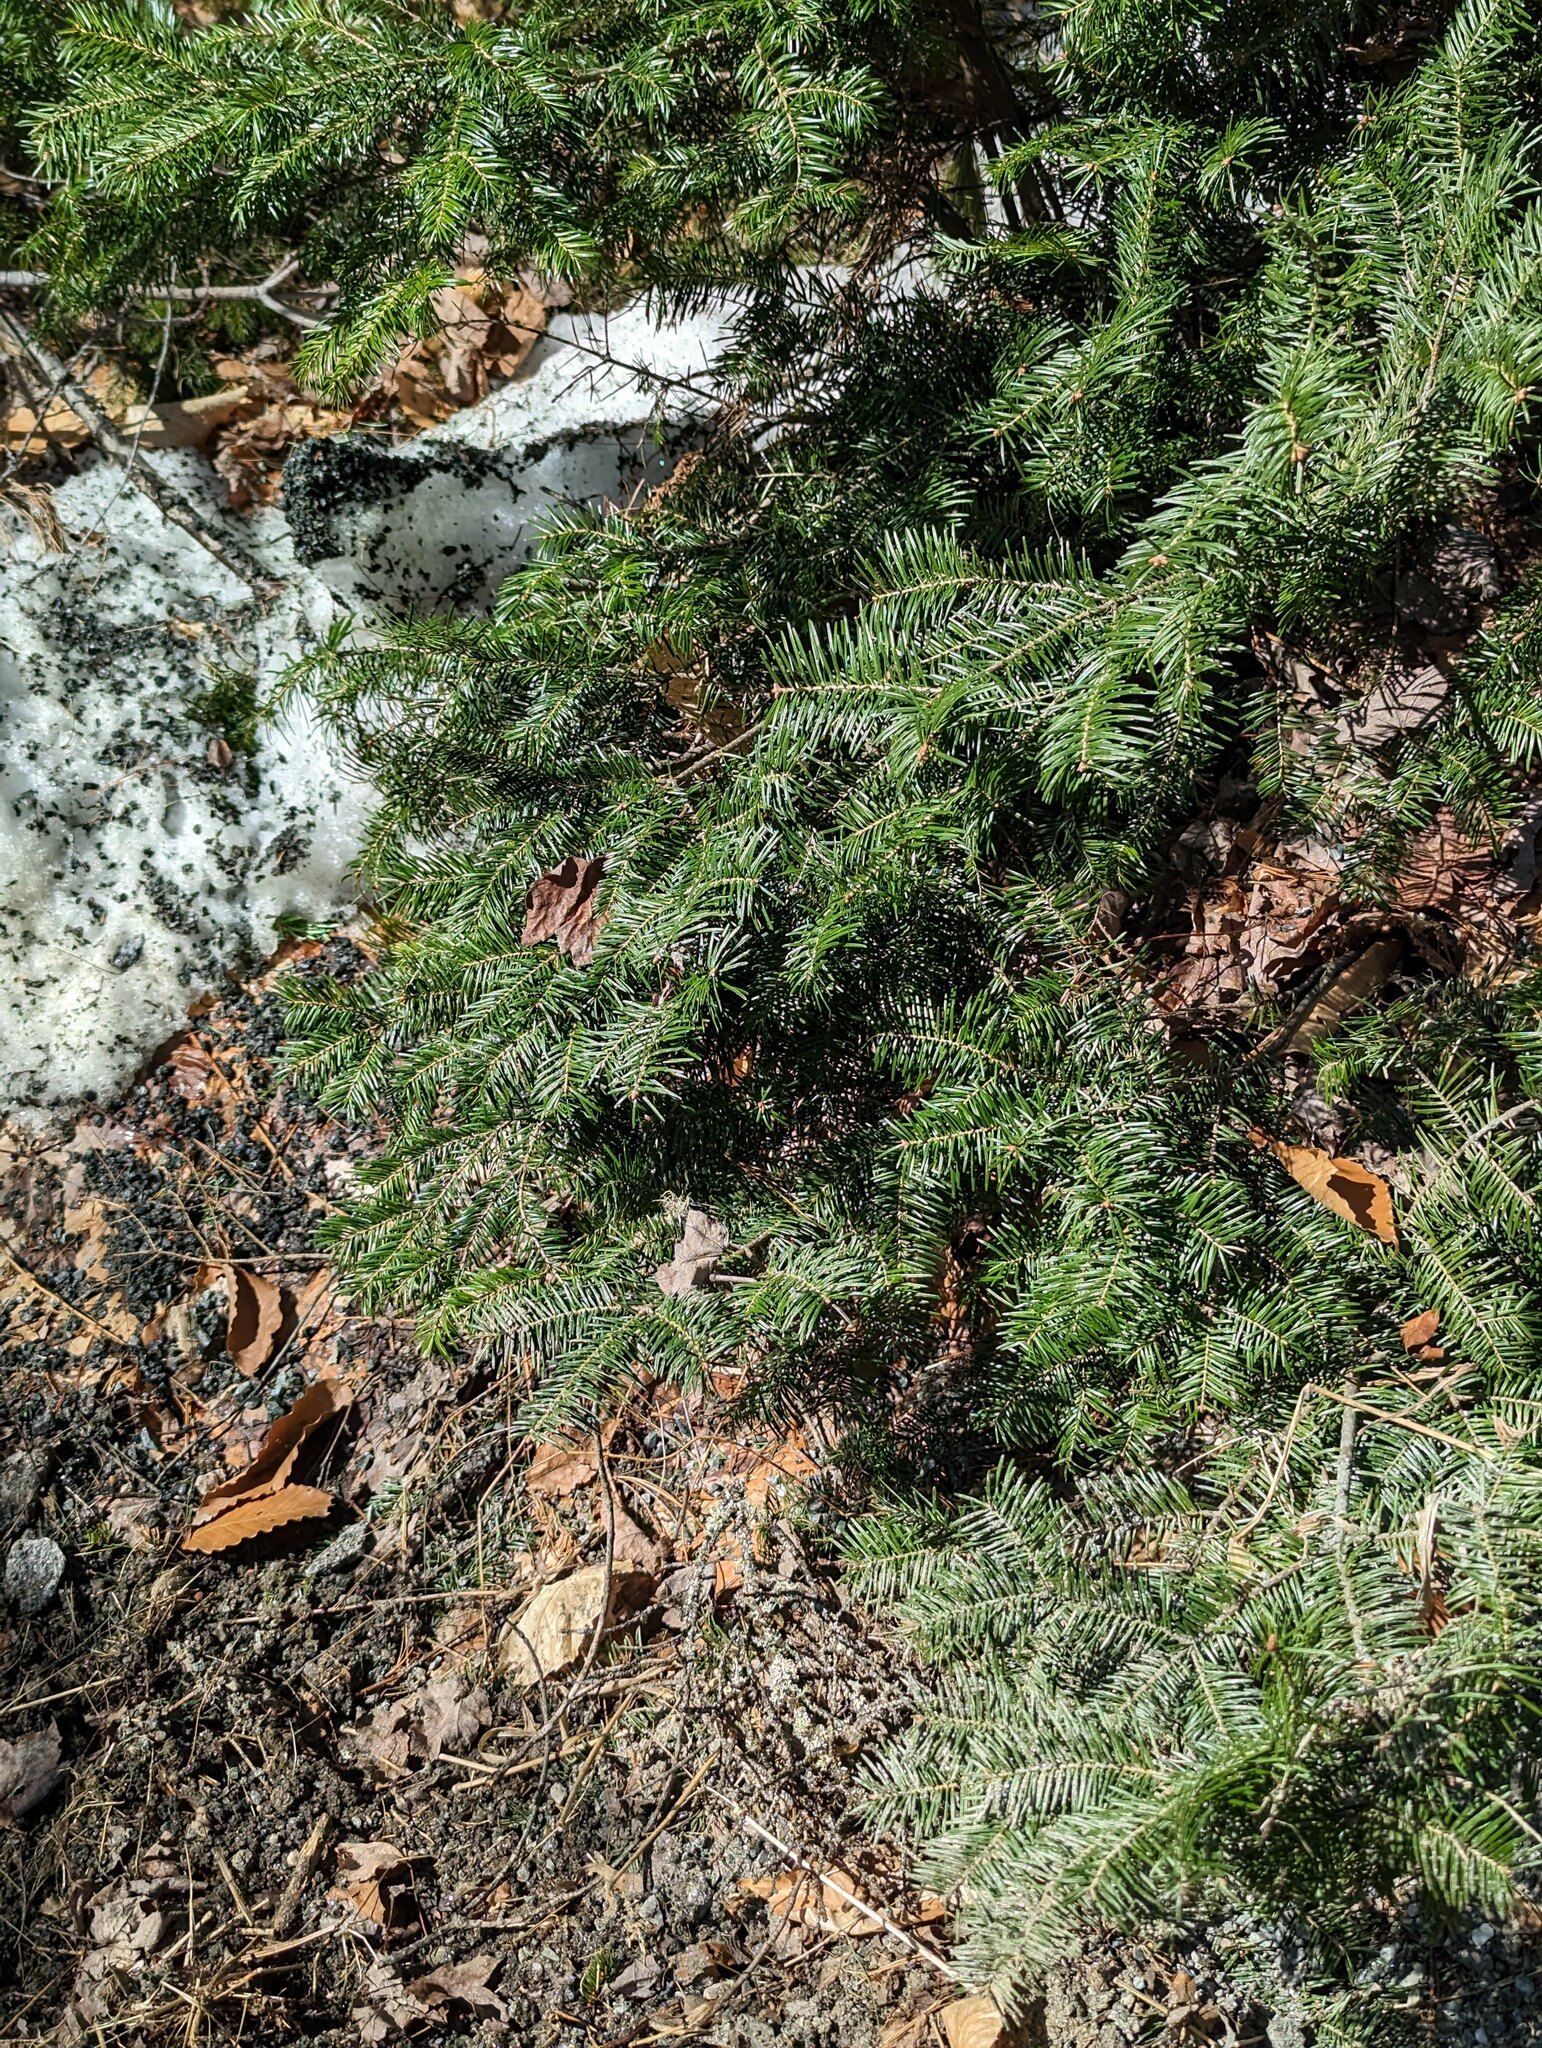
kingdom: Plantae
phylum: Tracheophyta
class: Pinopsida
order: Pinales
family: Pinaceae
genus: Abies
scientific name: Abies balsamea
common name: Balsam fir
